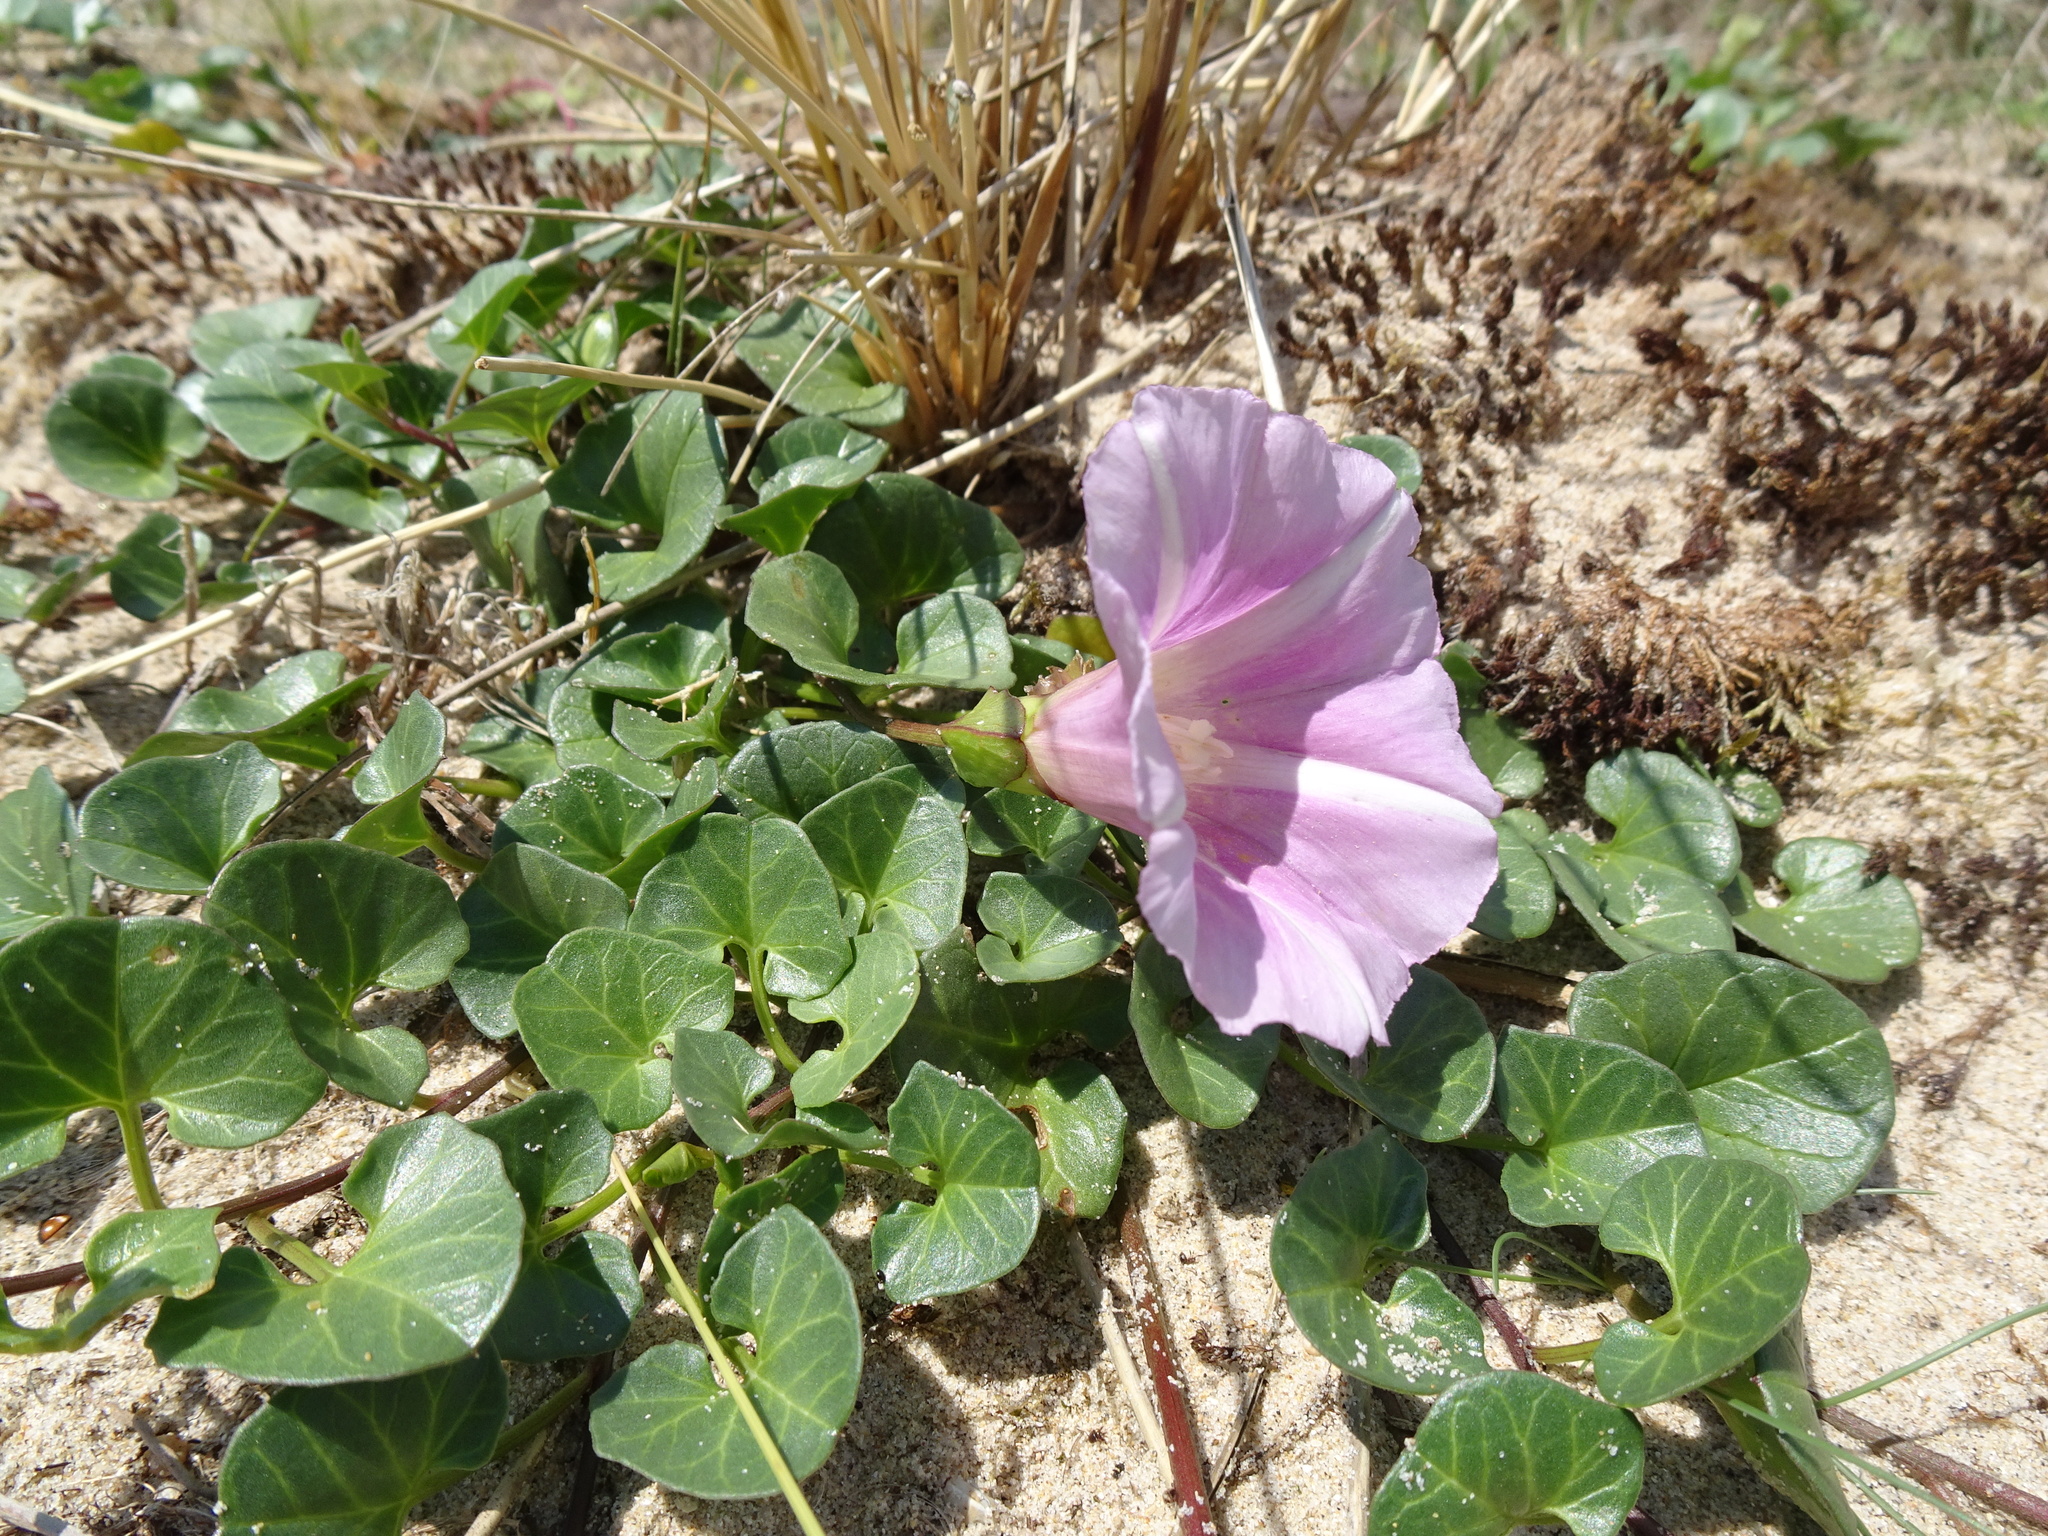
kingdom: Plantae
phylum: Tracheophyta
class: Magnoliopsida
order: Solanales
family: Convolvulaceae
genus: Calystegia
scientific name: Calystegia soldanella
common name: Sea bindweed
